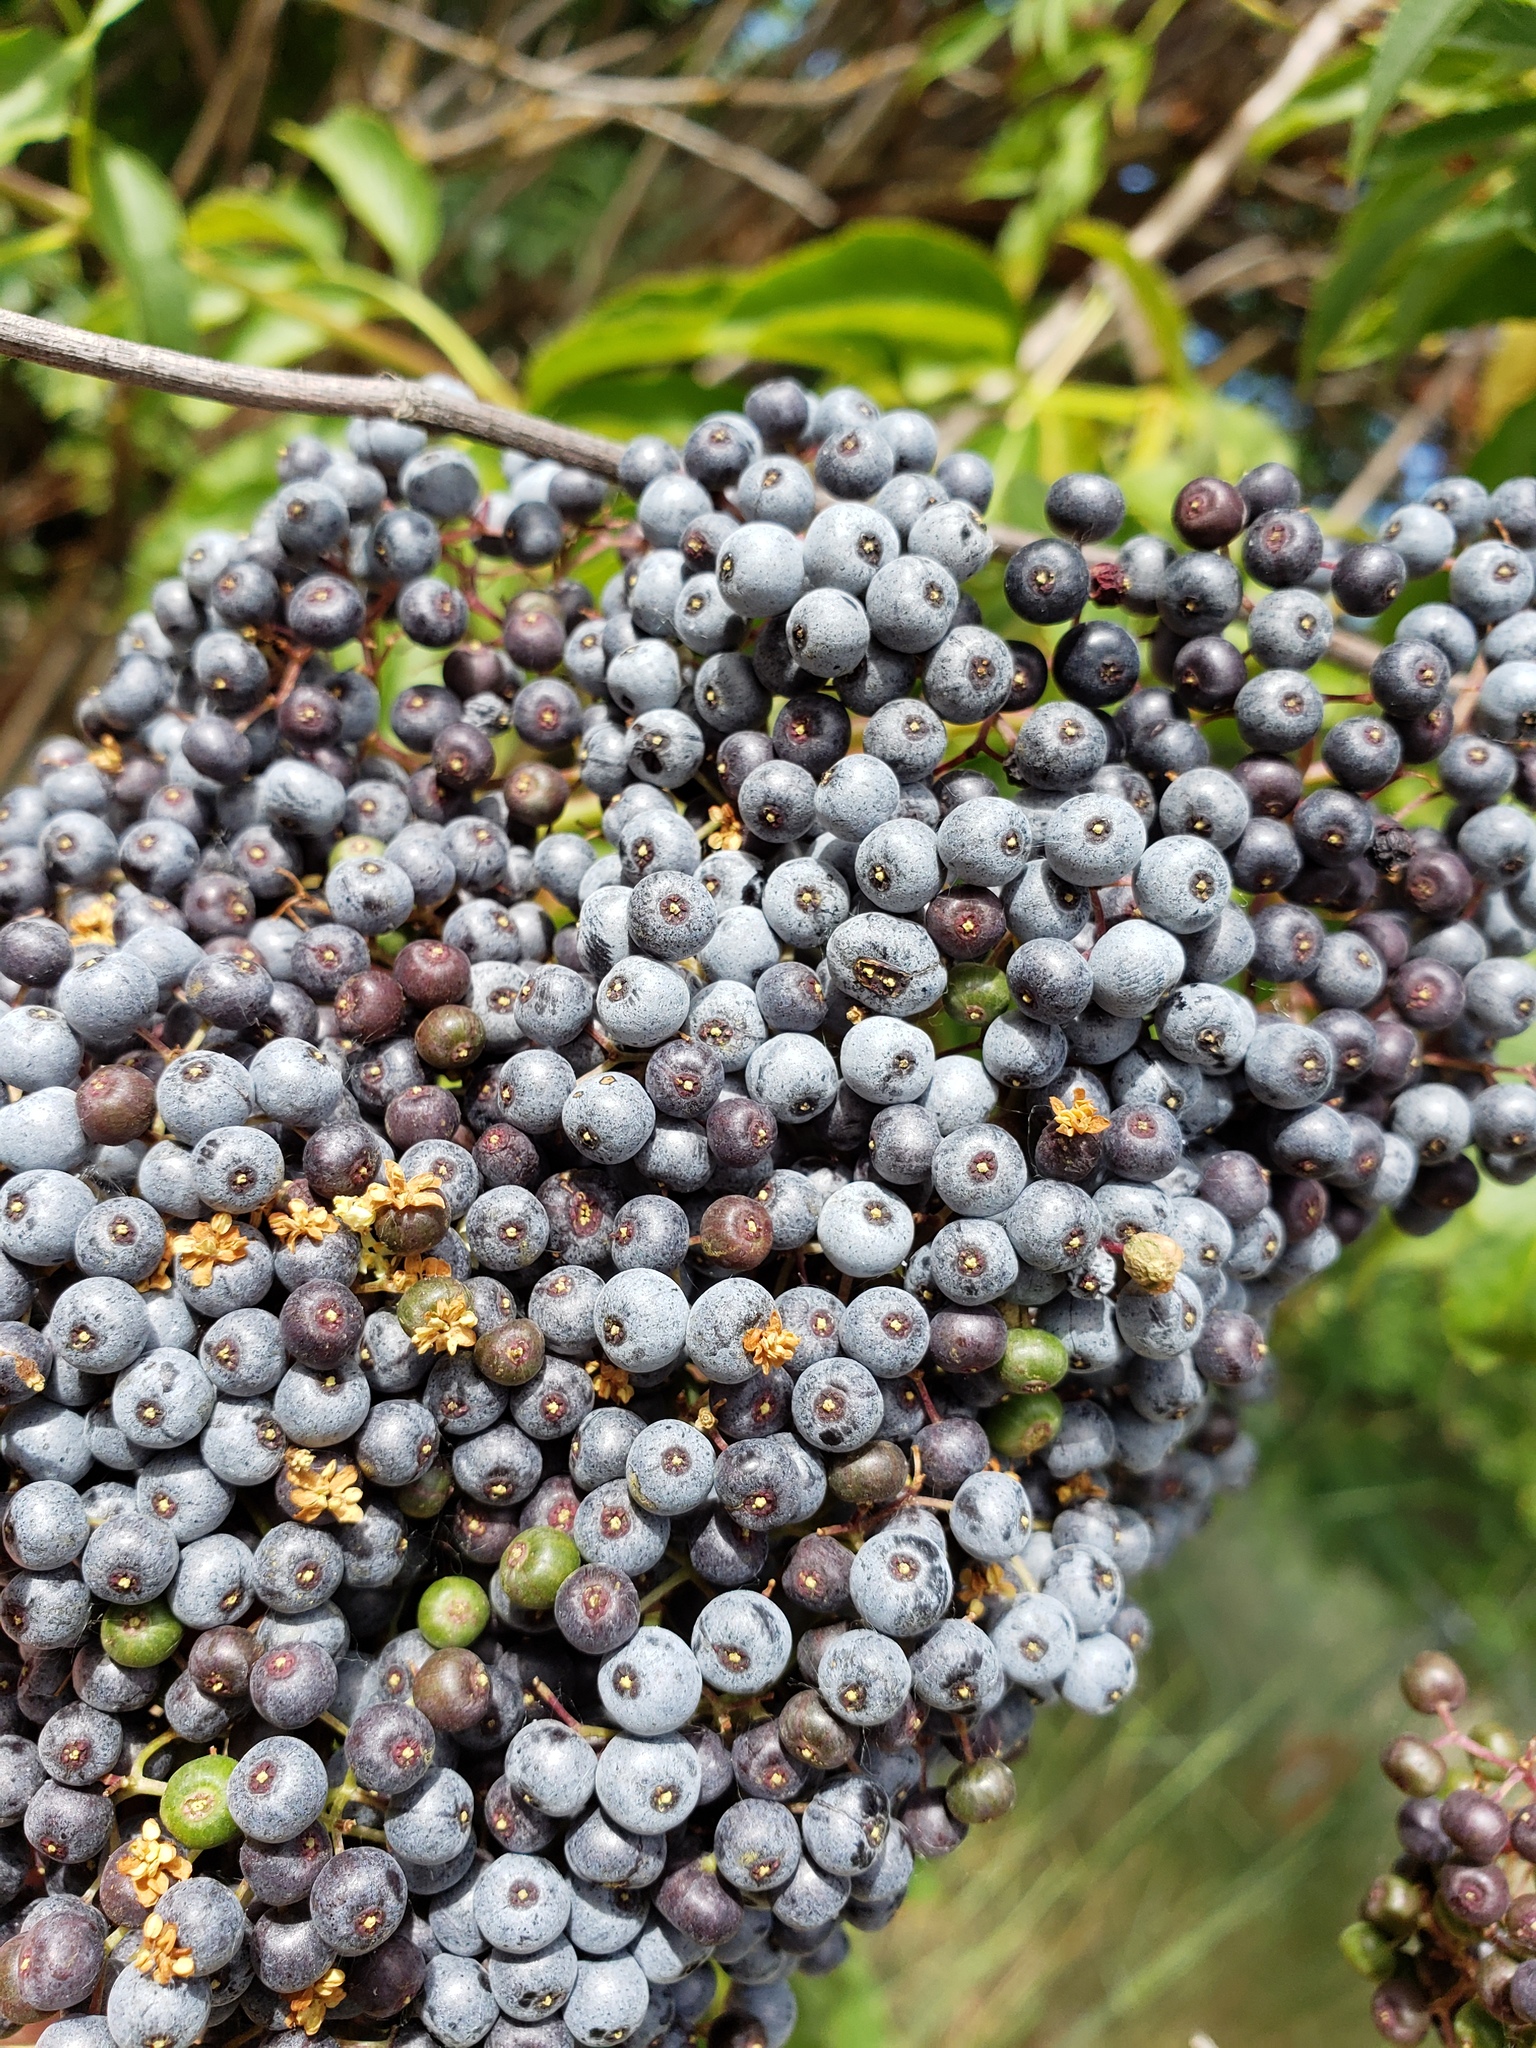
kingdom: Plantae
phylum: Tracheophyta
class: Magnoliopsida
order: Dipsacales
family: Viburnaceae
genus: Sambucus
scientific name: Sambucus cerulea
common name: Blue elder
